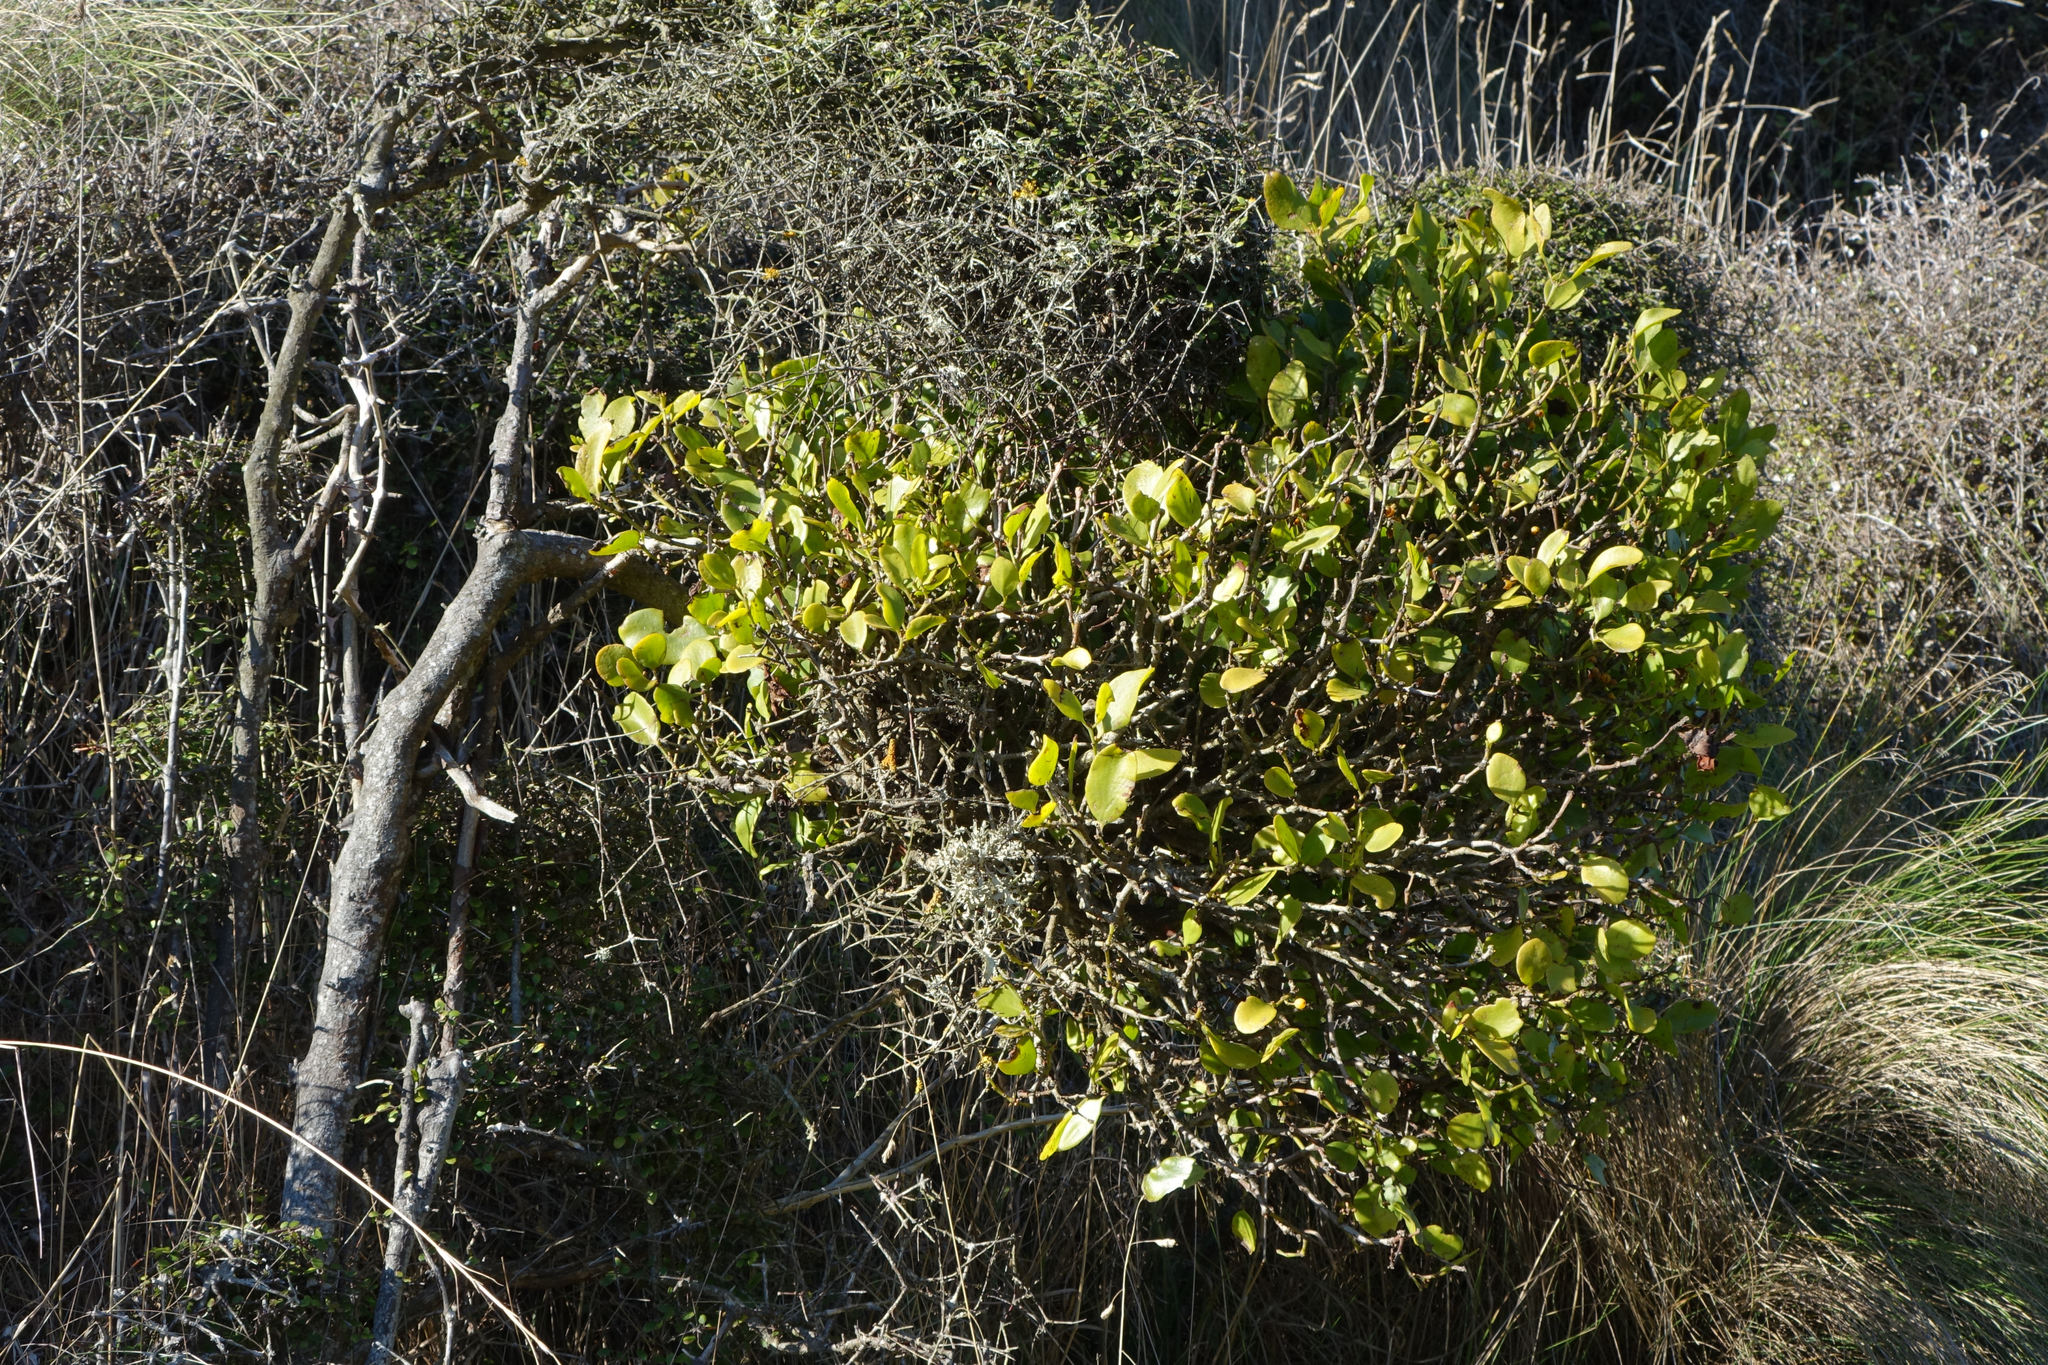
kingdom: Plantae
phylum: Tracheophyta
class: Magnoliopsida
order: Santalales
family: Loranthaceae
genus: Ileostylus
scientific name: Ileostylus micranthus
